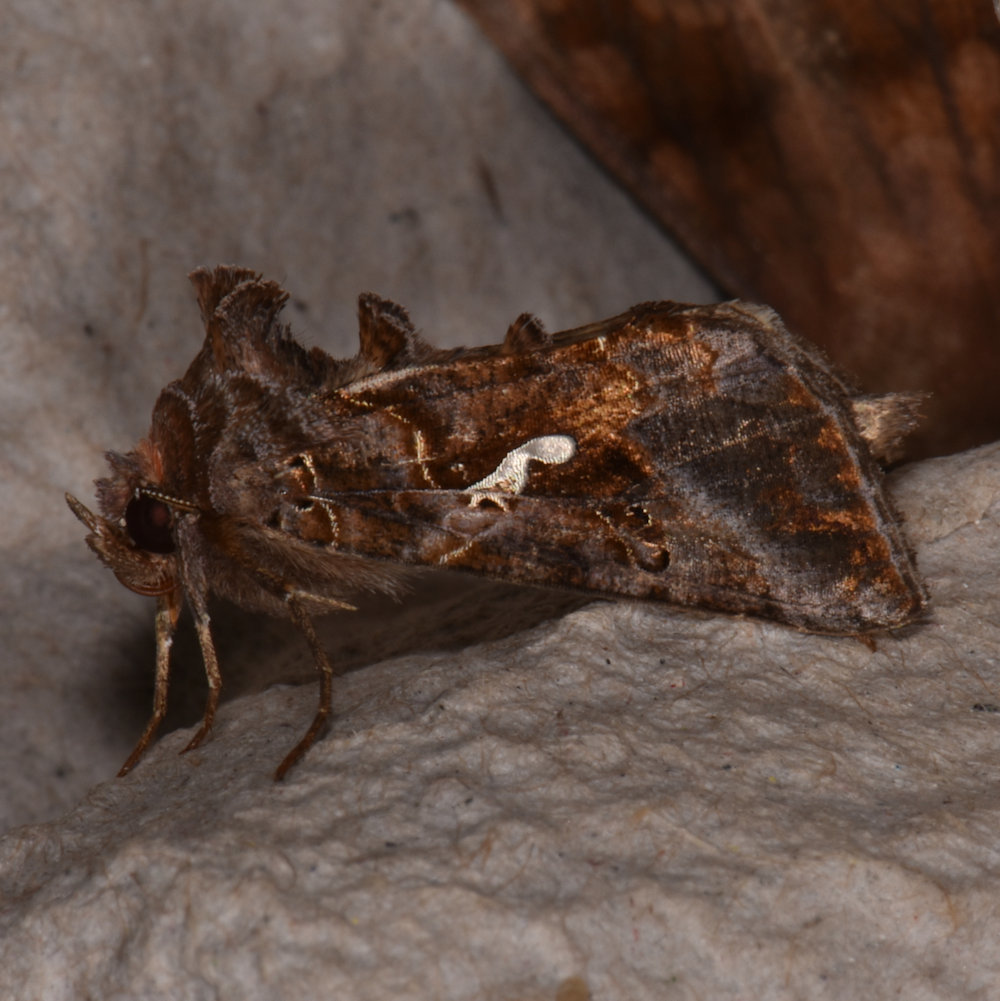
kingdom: Animalia
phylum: Arthropoda
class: Insecta
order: Lepidoptera
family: Noctuidae
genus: Autographa
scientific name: Autographa precationis
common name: Common looper moth
